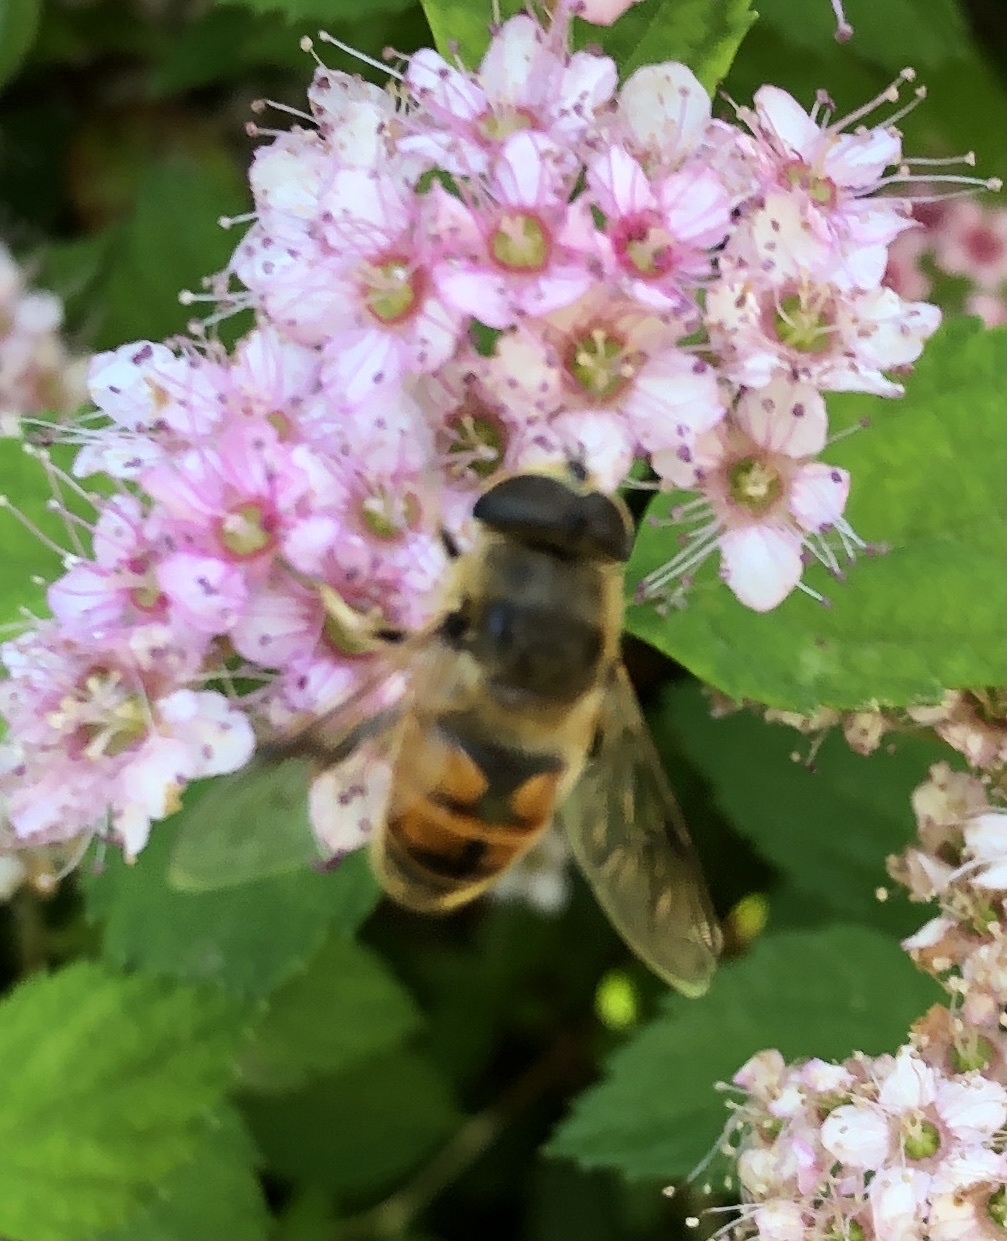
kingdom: Animalia
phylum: Arthropoda
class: Insecta
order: Diptera
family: Syrphidae
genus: Eristalis
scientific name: Eristalis tenax
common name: Drone fly
